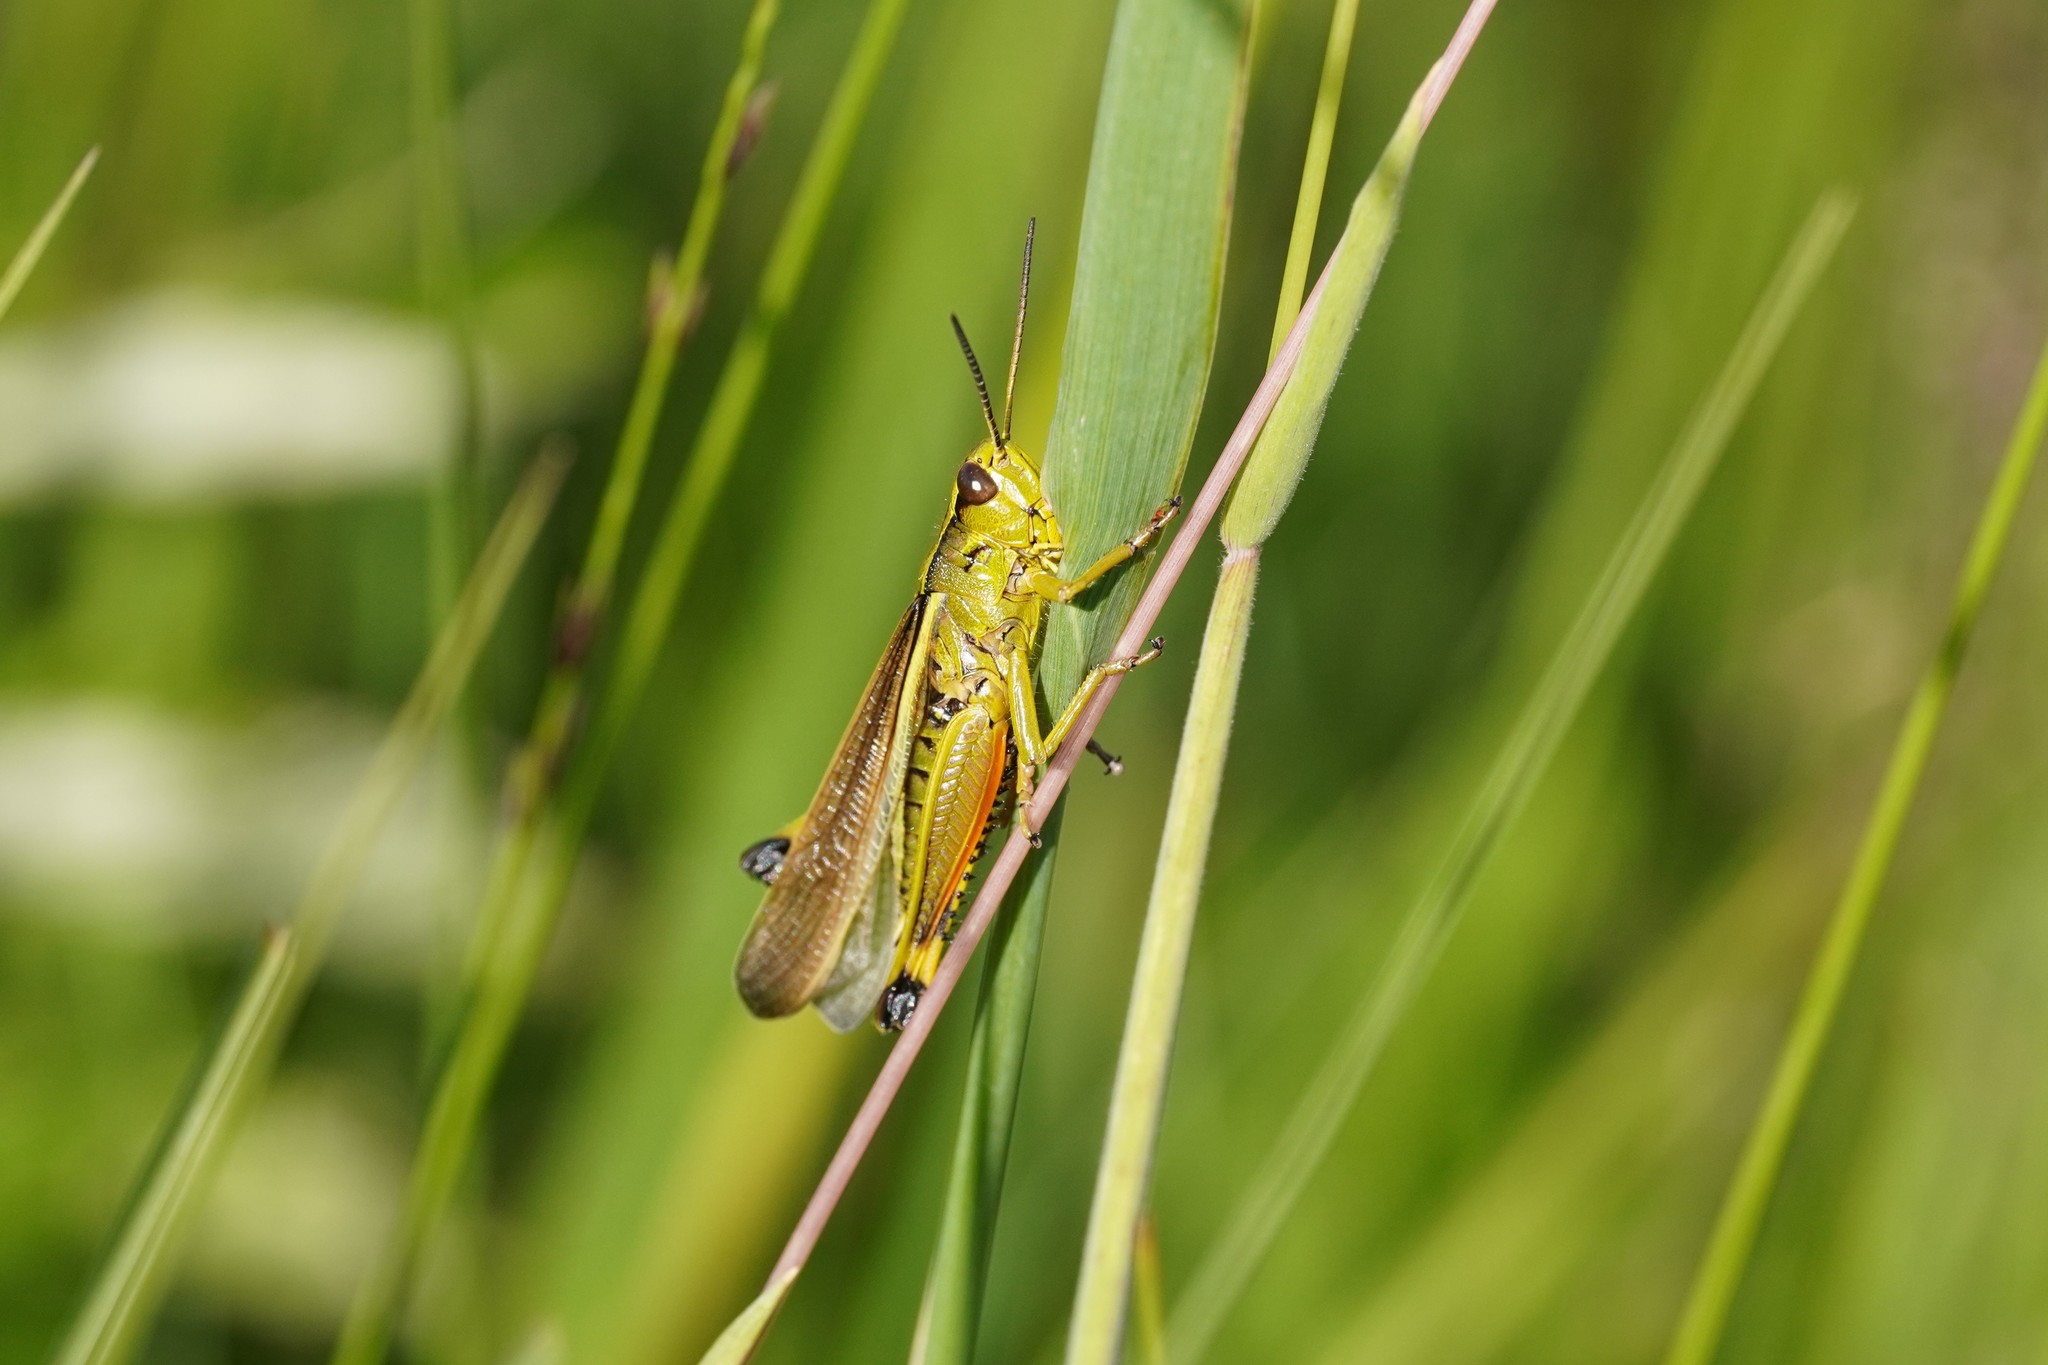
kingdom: Animalia
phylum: Arthropoda
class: Insecta
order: Orthoptera
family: Acrididae
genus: Stethophyma
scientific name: Stethophyma grossum
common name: Large marsh grasshopper
